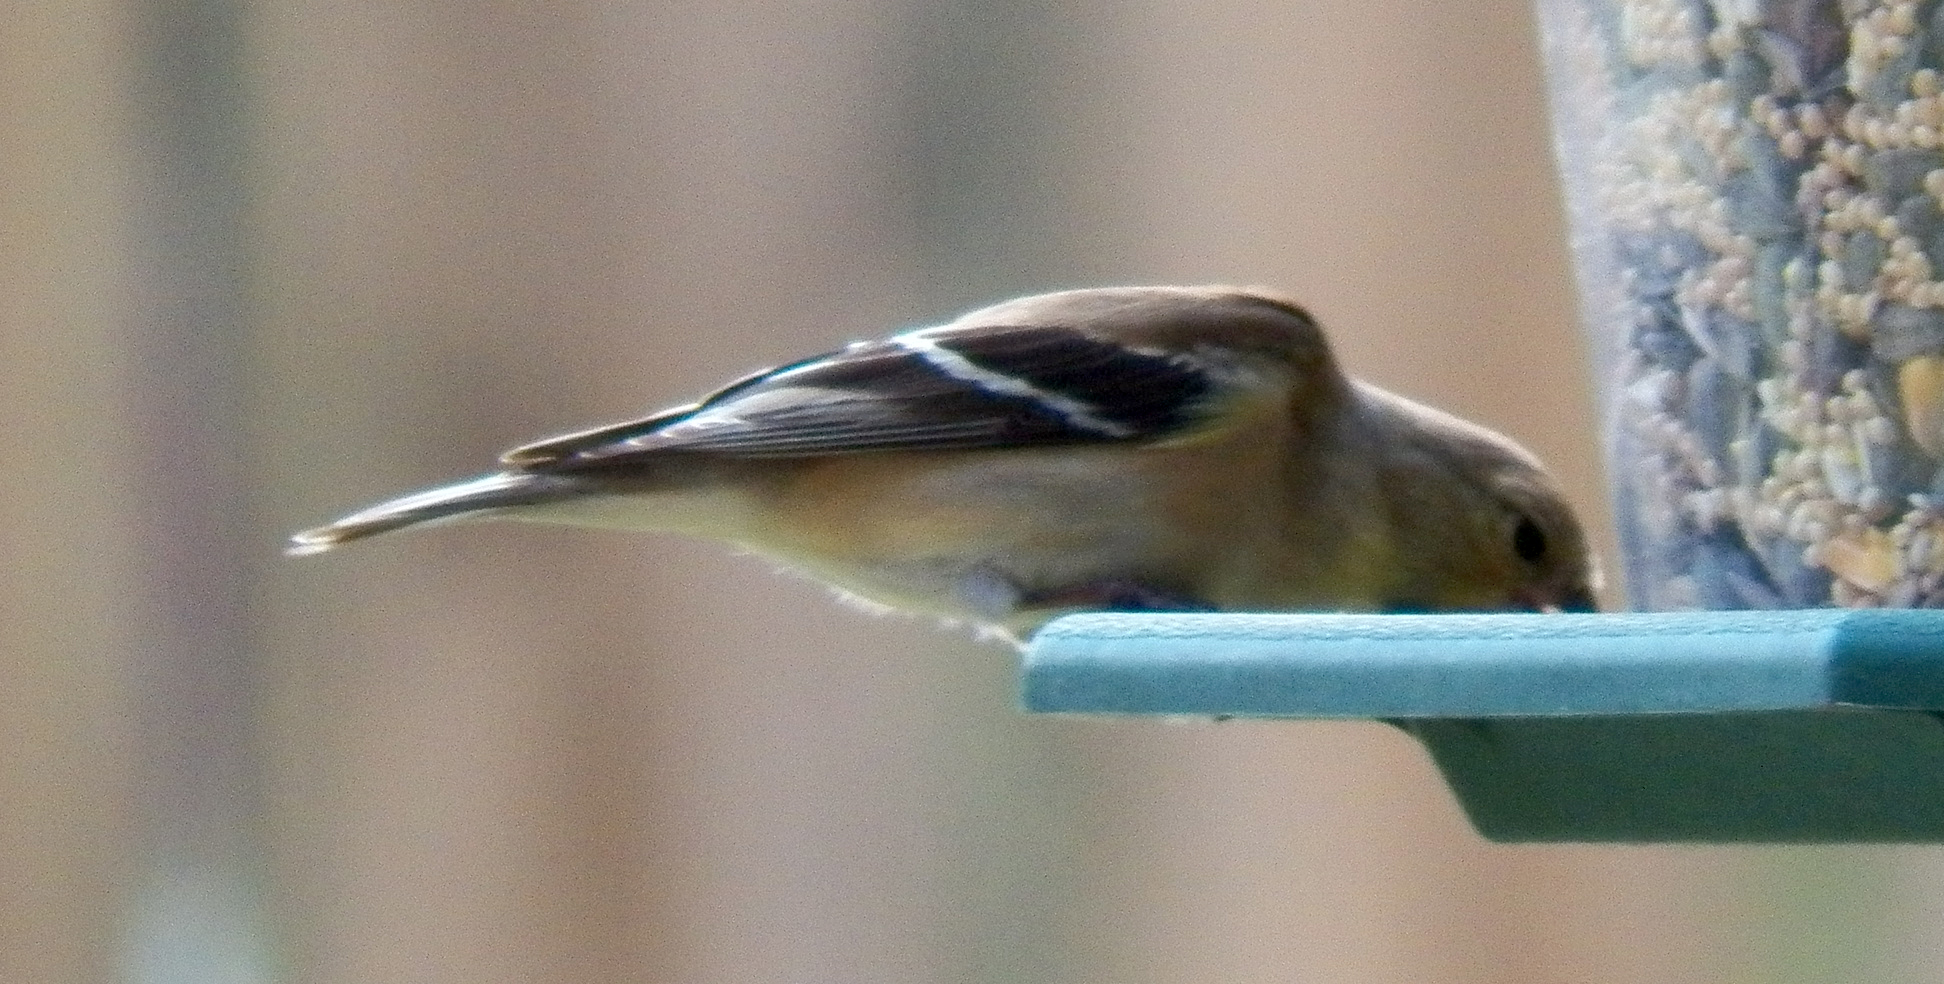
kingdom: Animalia
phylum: Chordata
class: Aves
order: Passeriformes
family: Fringillidae
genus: Spinus
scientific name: Spinus tristis
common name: American goldfinch
